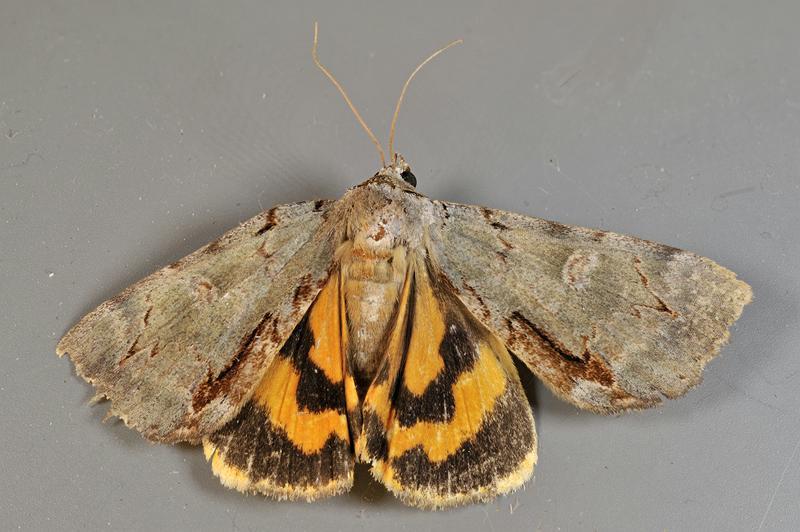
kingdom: Animalia
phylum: Arthropoda
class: Insecta
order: Lepidoptera
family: Erebidae
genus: Catocala
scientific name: Catocala grynea
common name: Woody underwing
